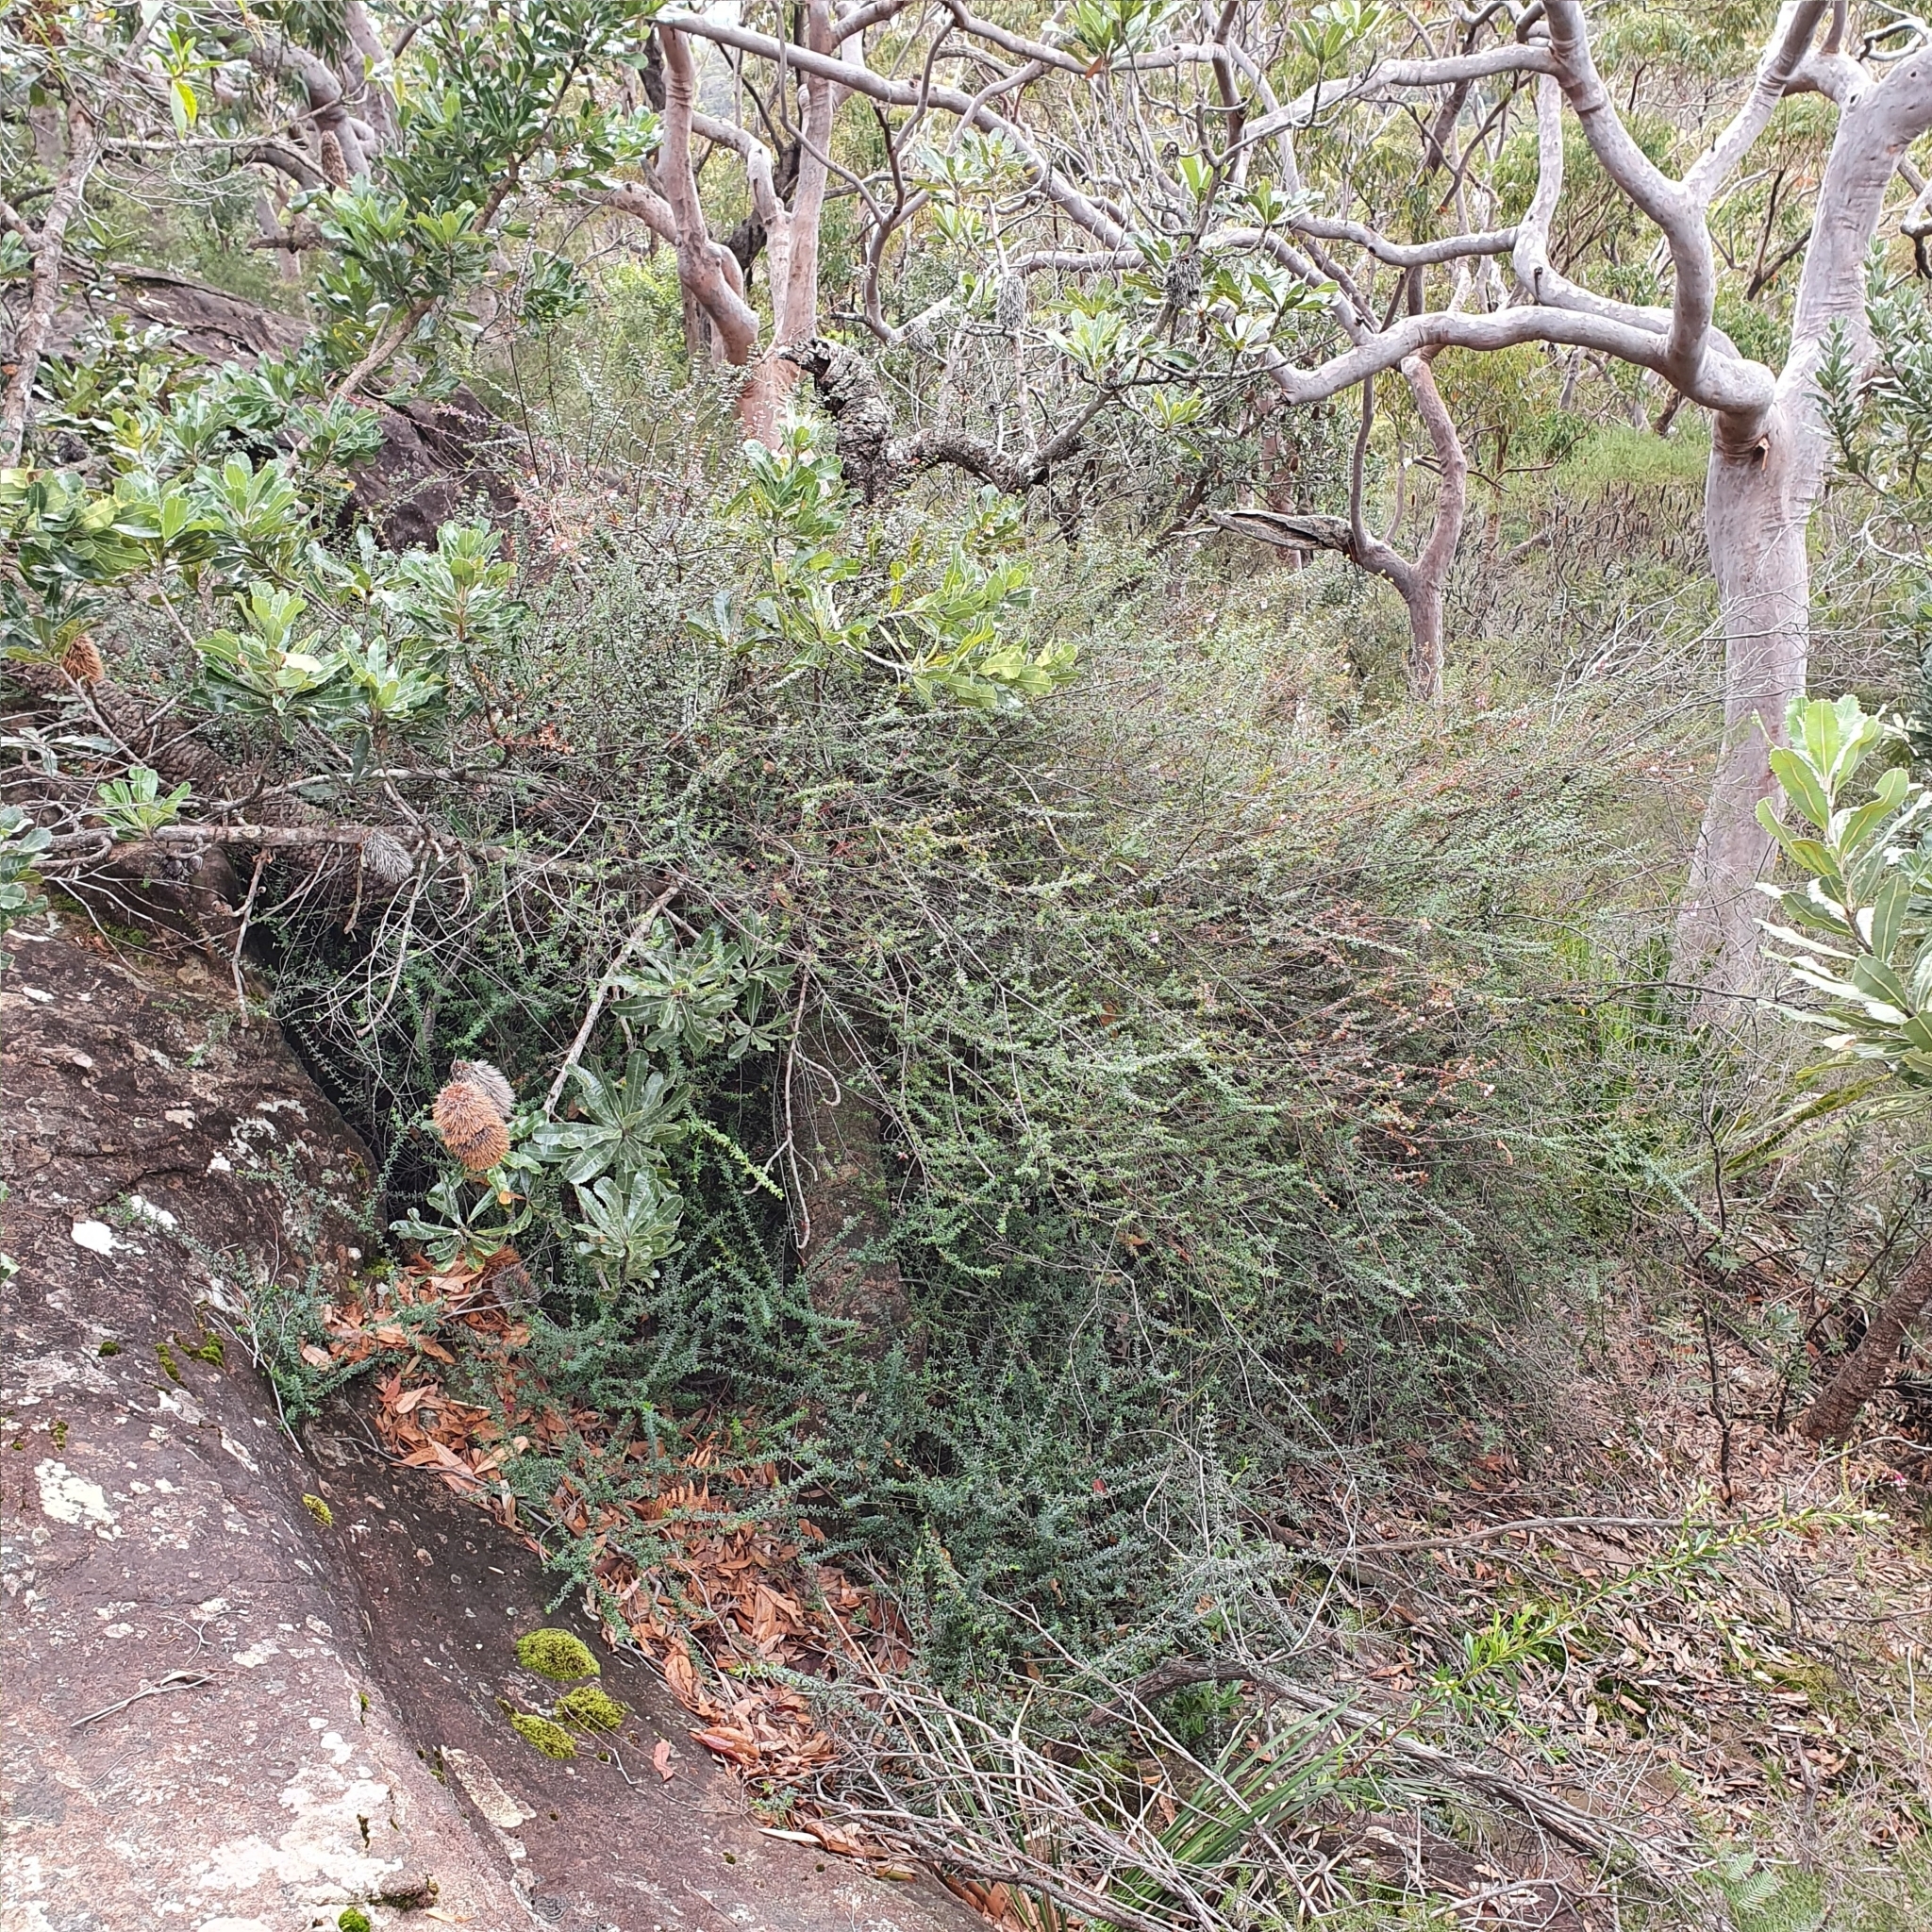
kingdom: Plantae
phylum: Tracheophyta
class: Magnoliopsida
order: Oxalidales
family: Cunoniaceae
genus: Bauera
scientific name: Bauera rubioides
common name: River-rose
